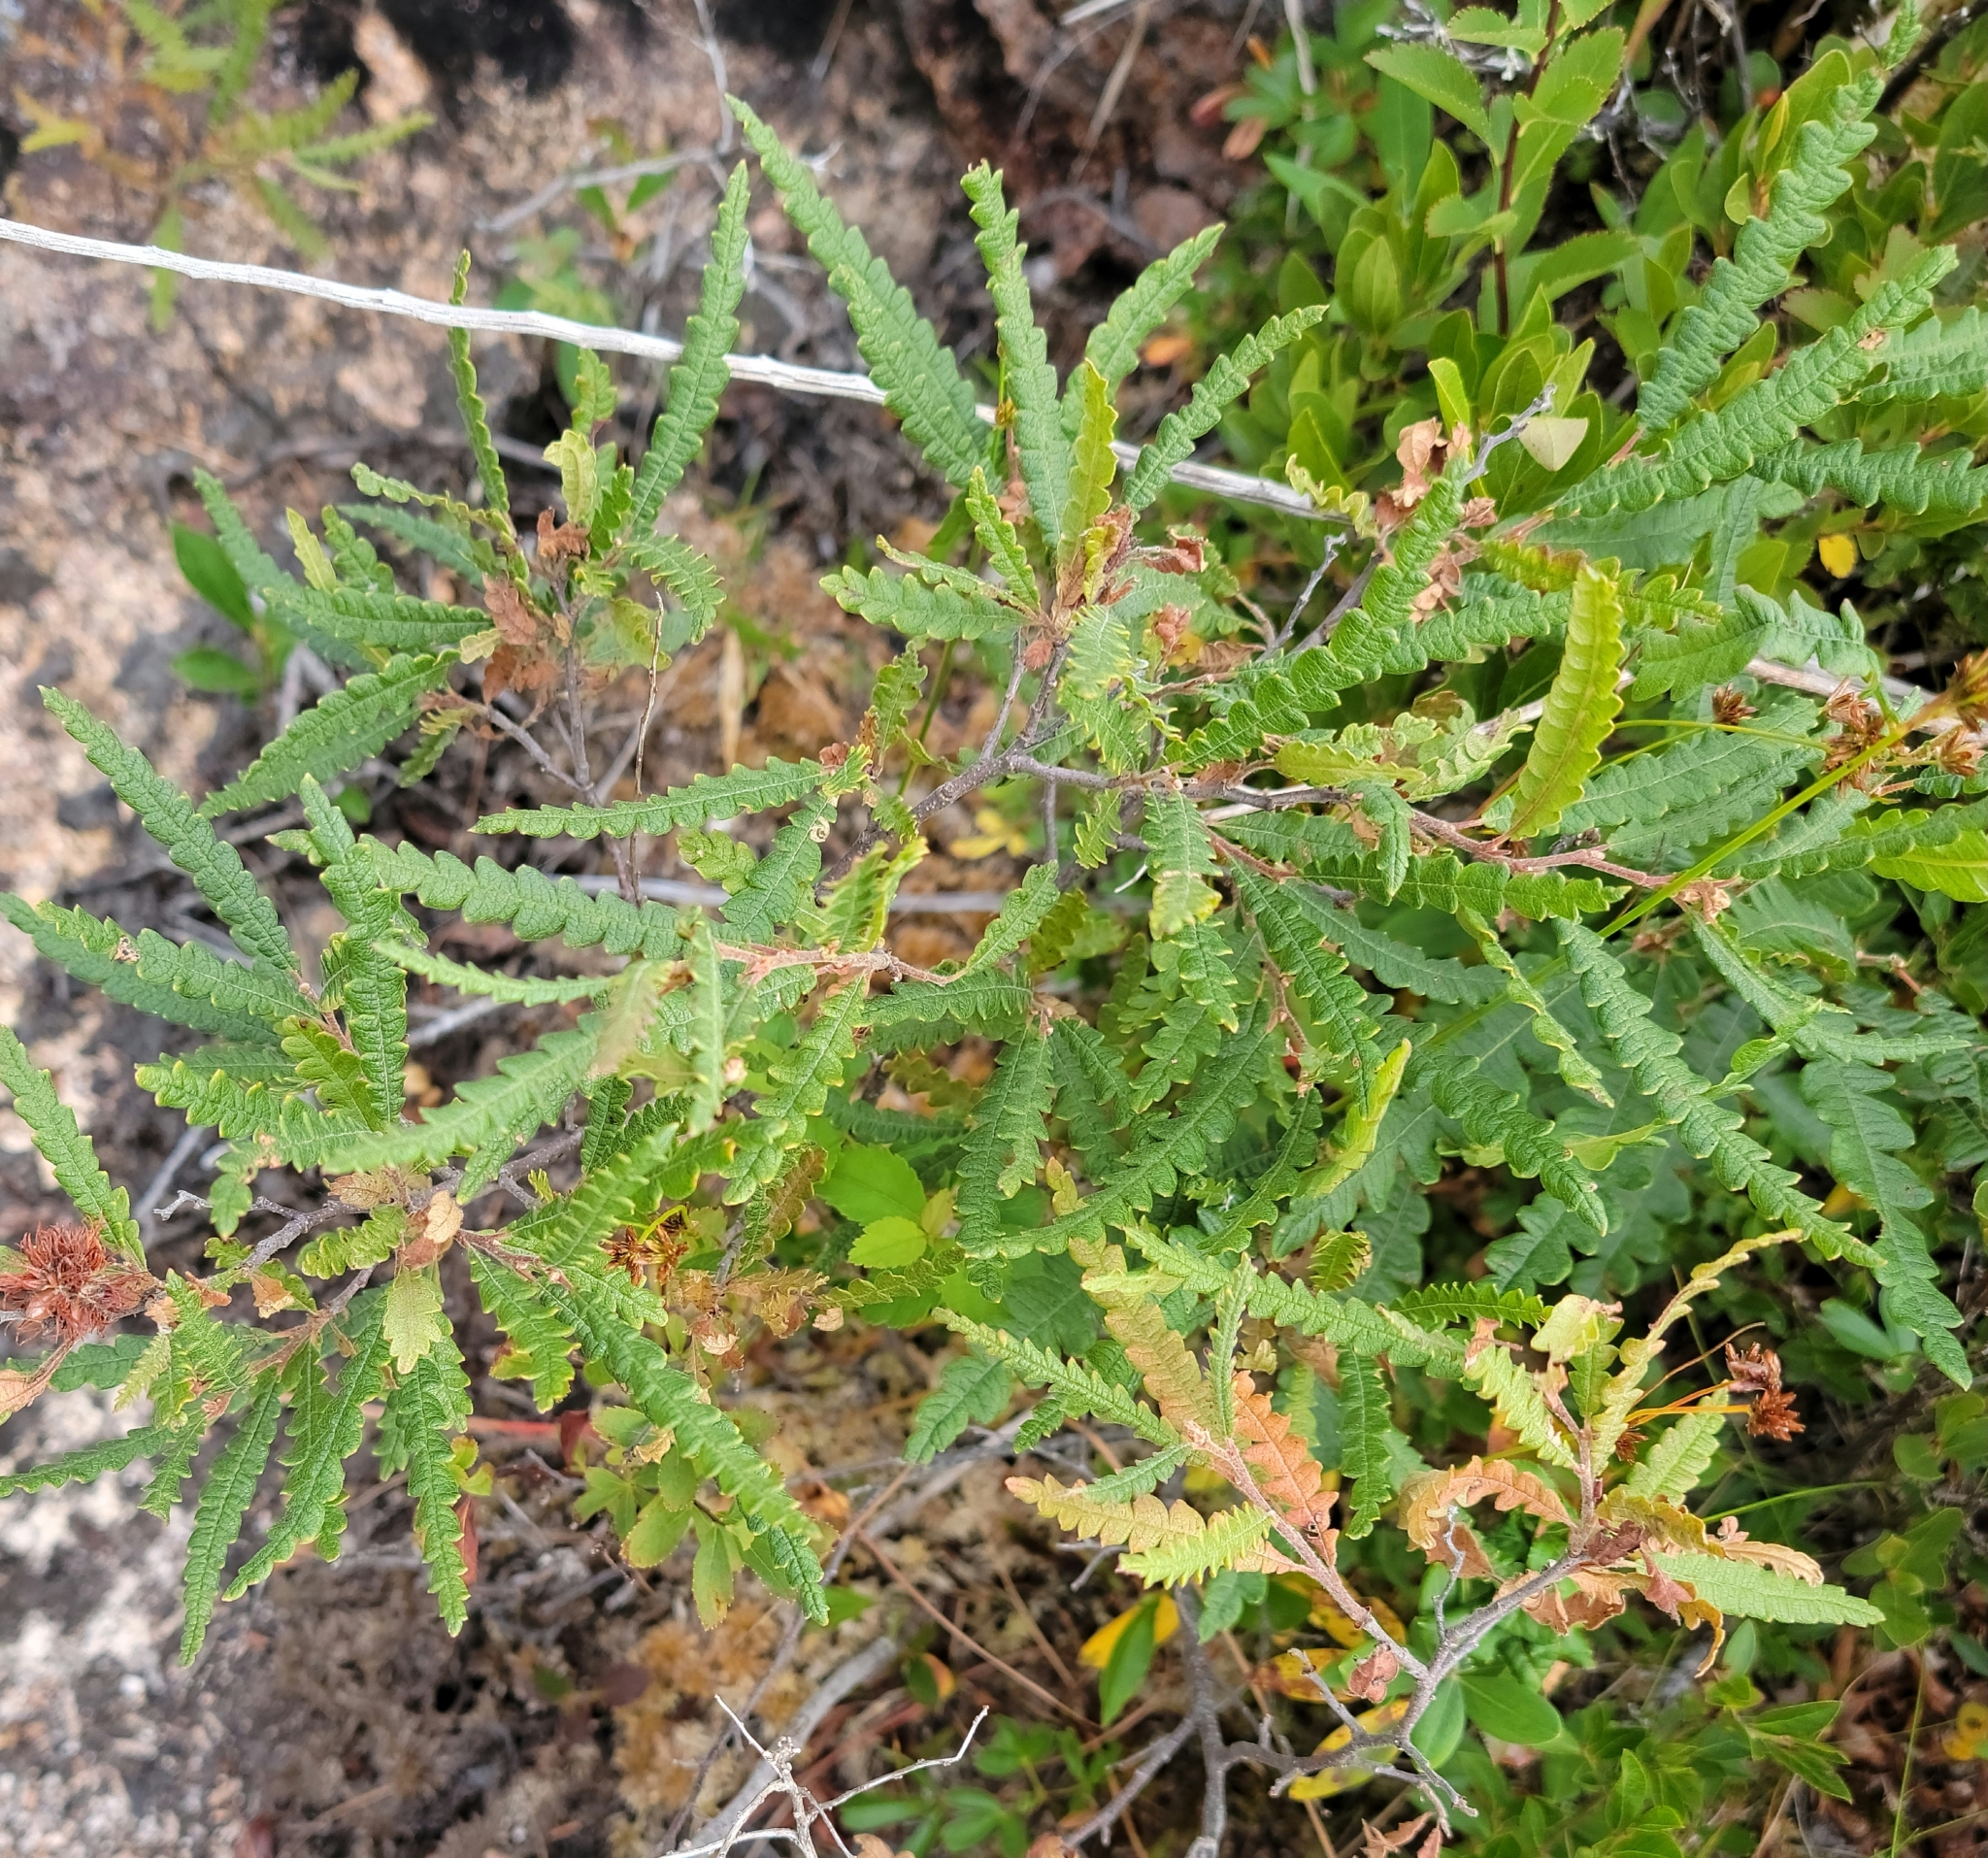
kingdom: Plantae
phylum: Tracheophyta
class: Magnoliopsida
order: Fagales
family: Myricaceae
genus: Comptonia
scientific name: Comptonia peregrina
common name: Sweet-fern
